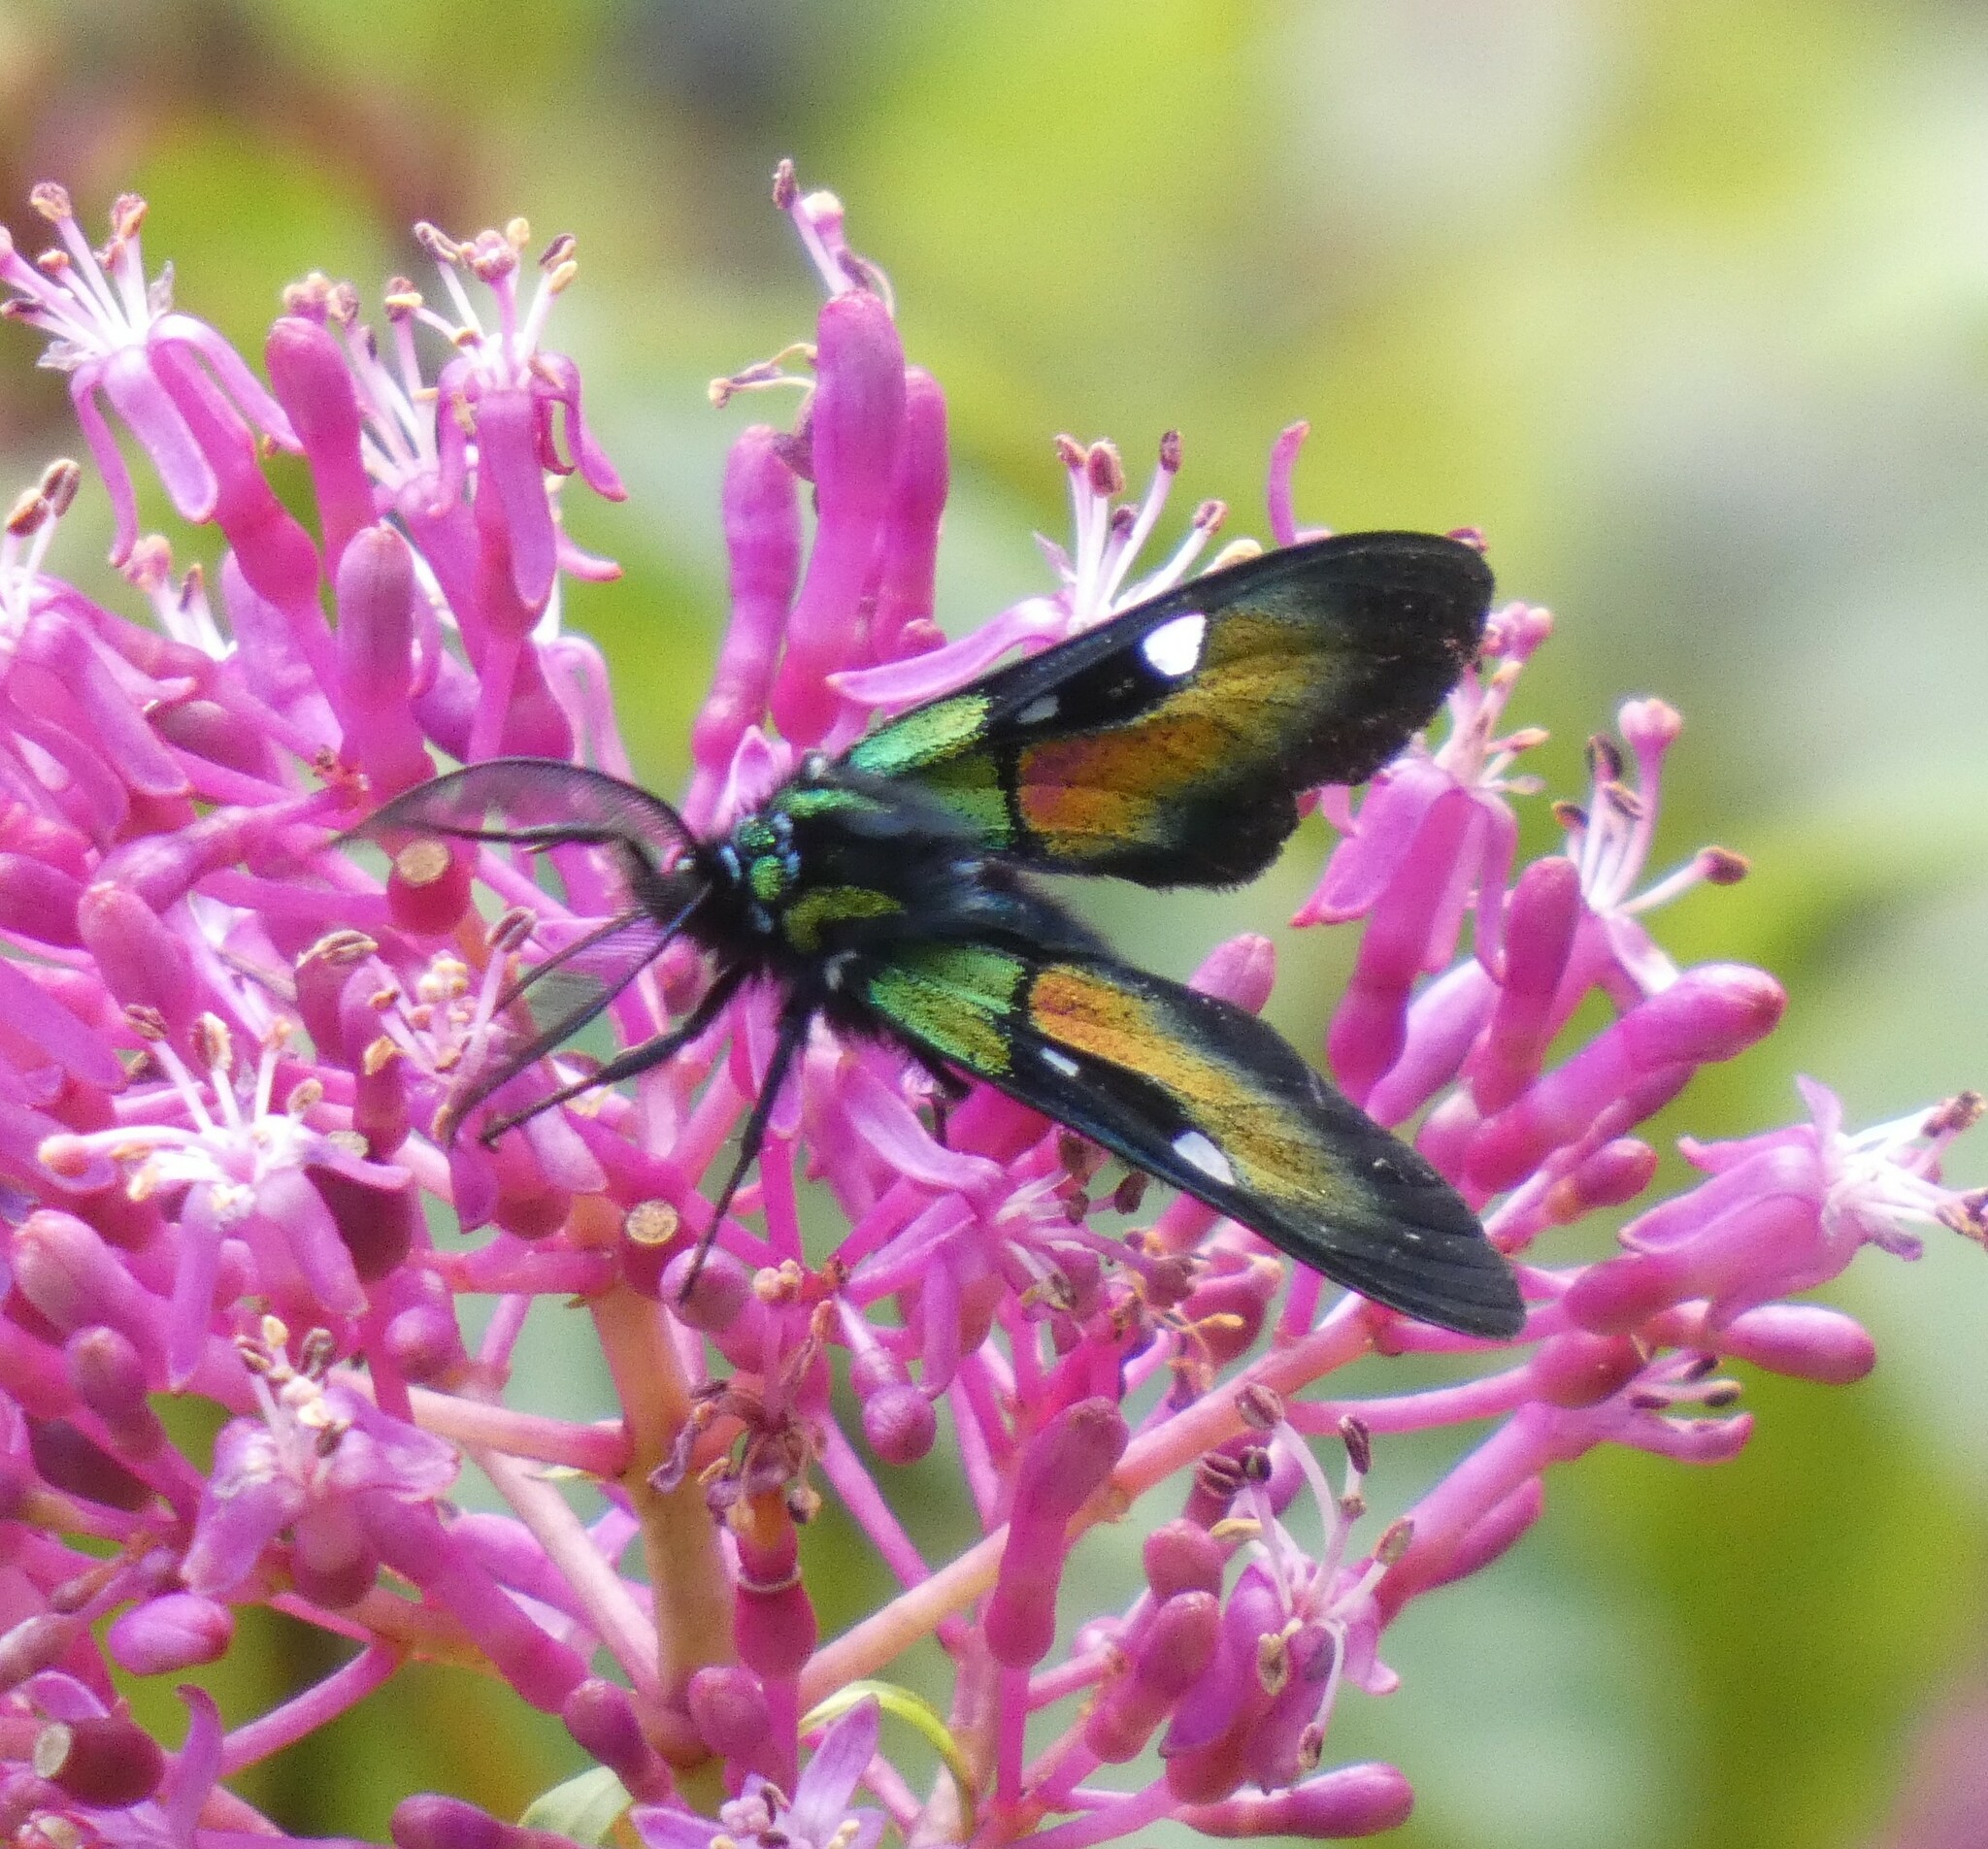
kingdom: Animalia
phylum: Arthropoda
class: Insecta
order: Lepidoptera
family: Erebidae
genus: Chrysocale
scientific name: Chrysocale ignita
